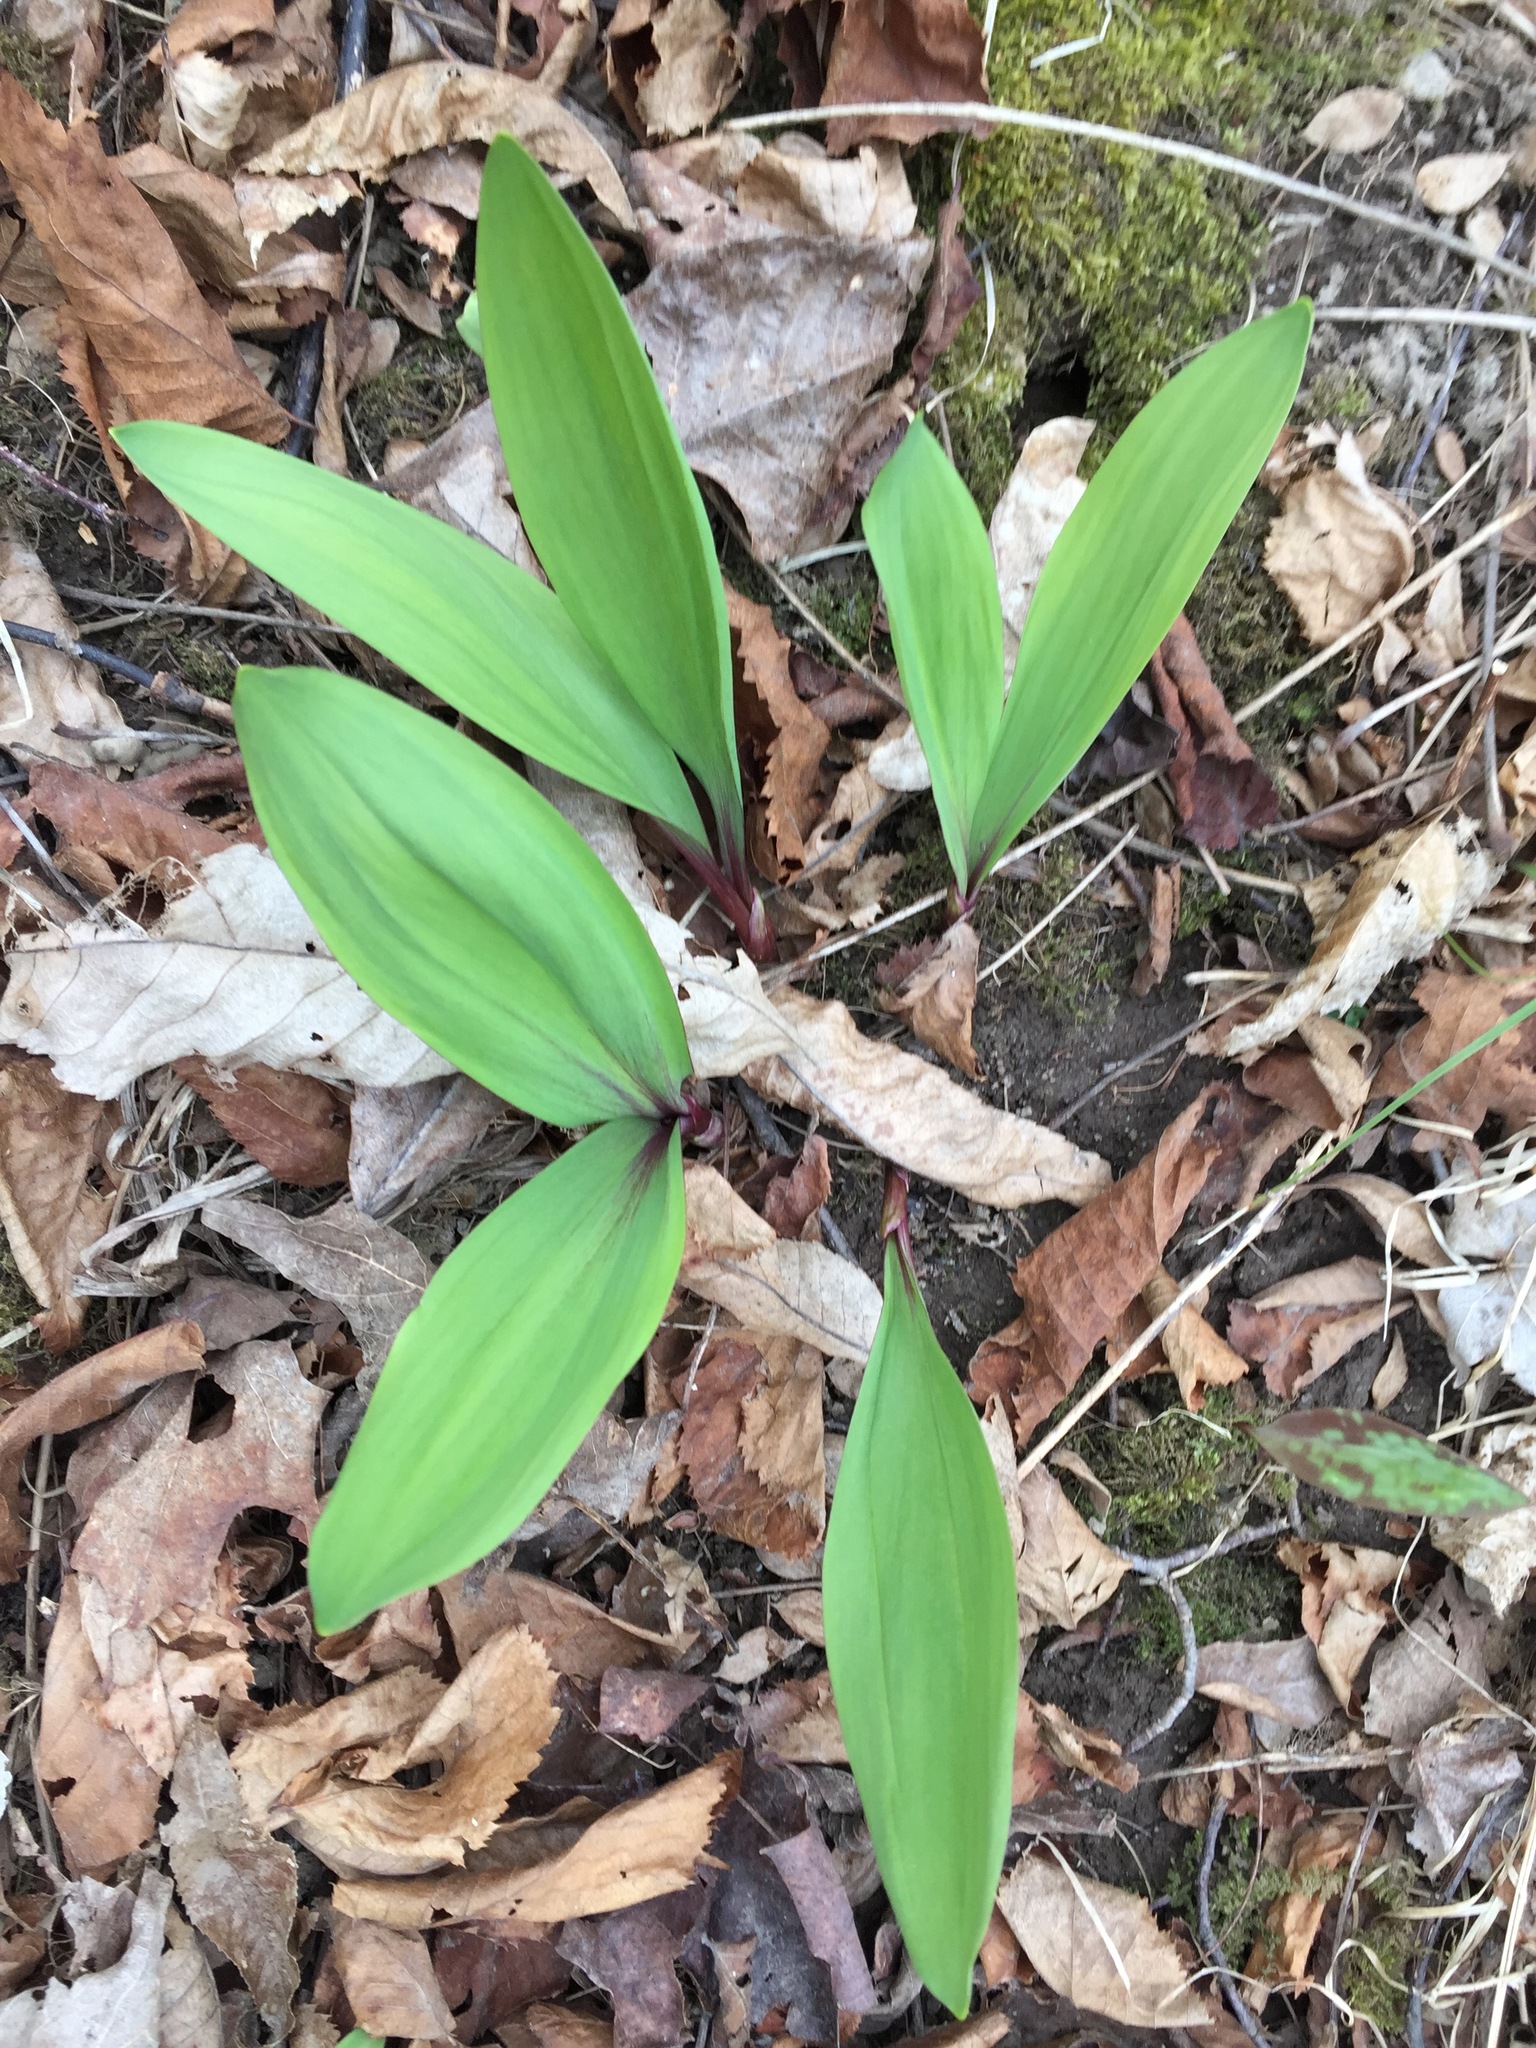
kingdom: Plantae
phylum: Tracheophyta
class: Liliopsida
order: Asparagales
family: Amaryllidaceae
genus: Allium
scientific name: Allium tricoccum
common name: Ramp
